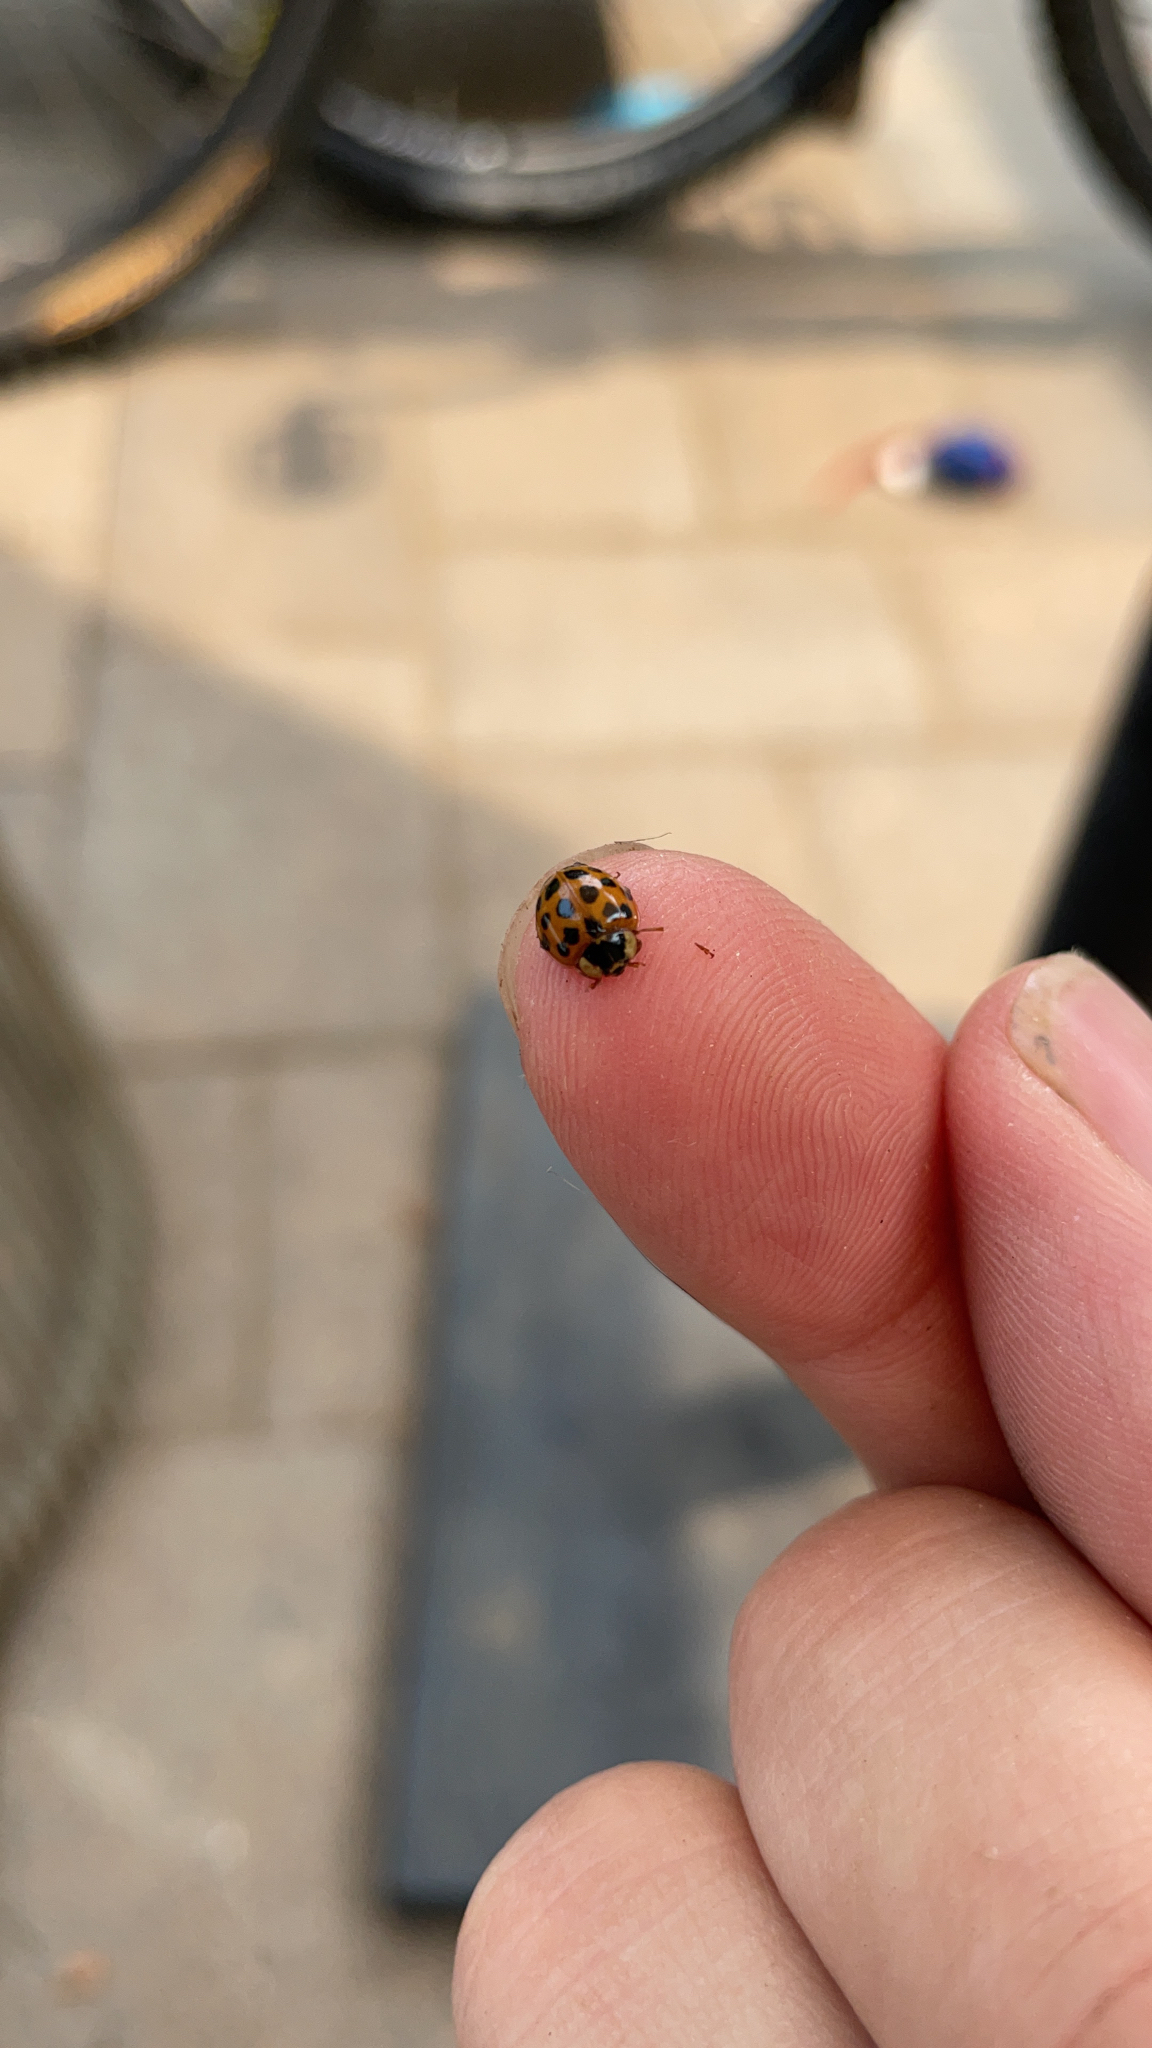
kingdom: Animalia
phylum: Arthropoda
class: Insecta
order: Coleoptera
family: Coccinellidae
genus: Harmonia
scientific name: Harmonia axyridis
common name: Harlequin ladybird
